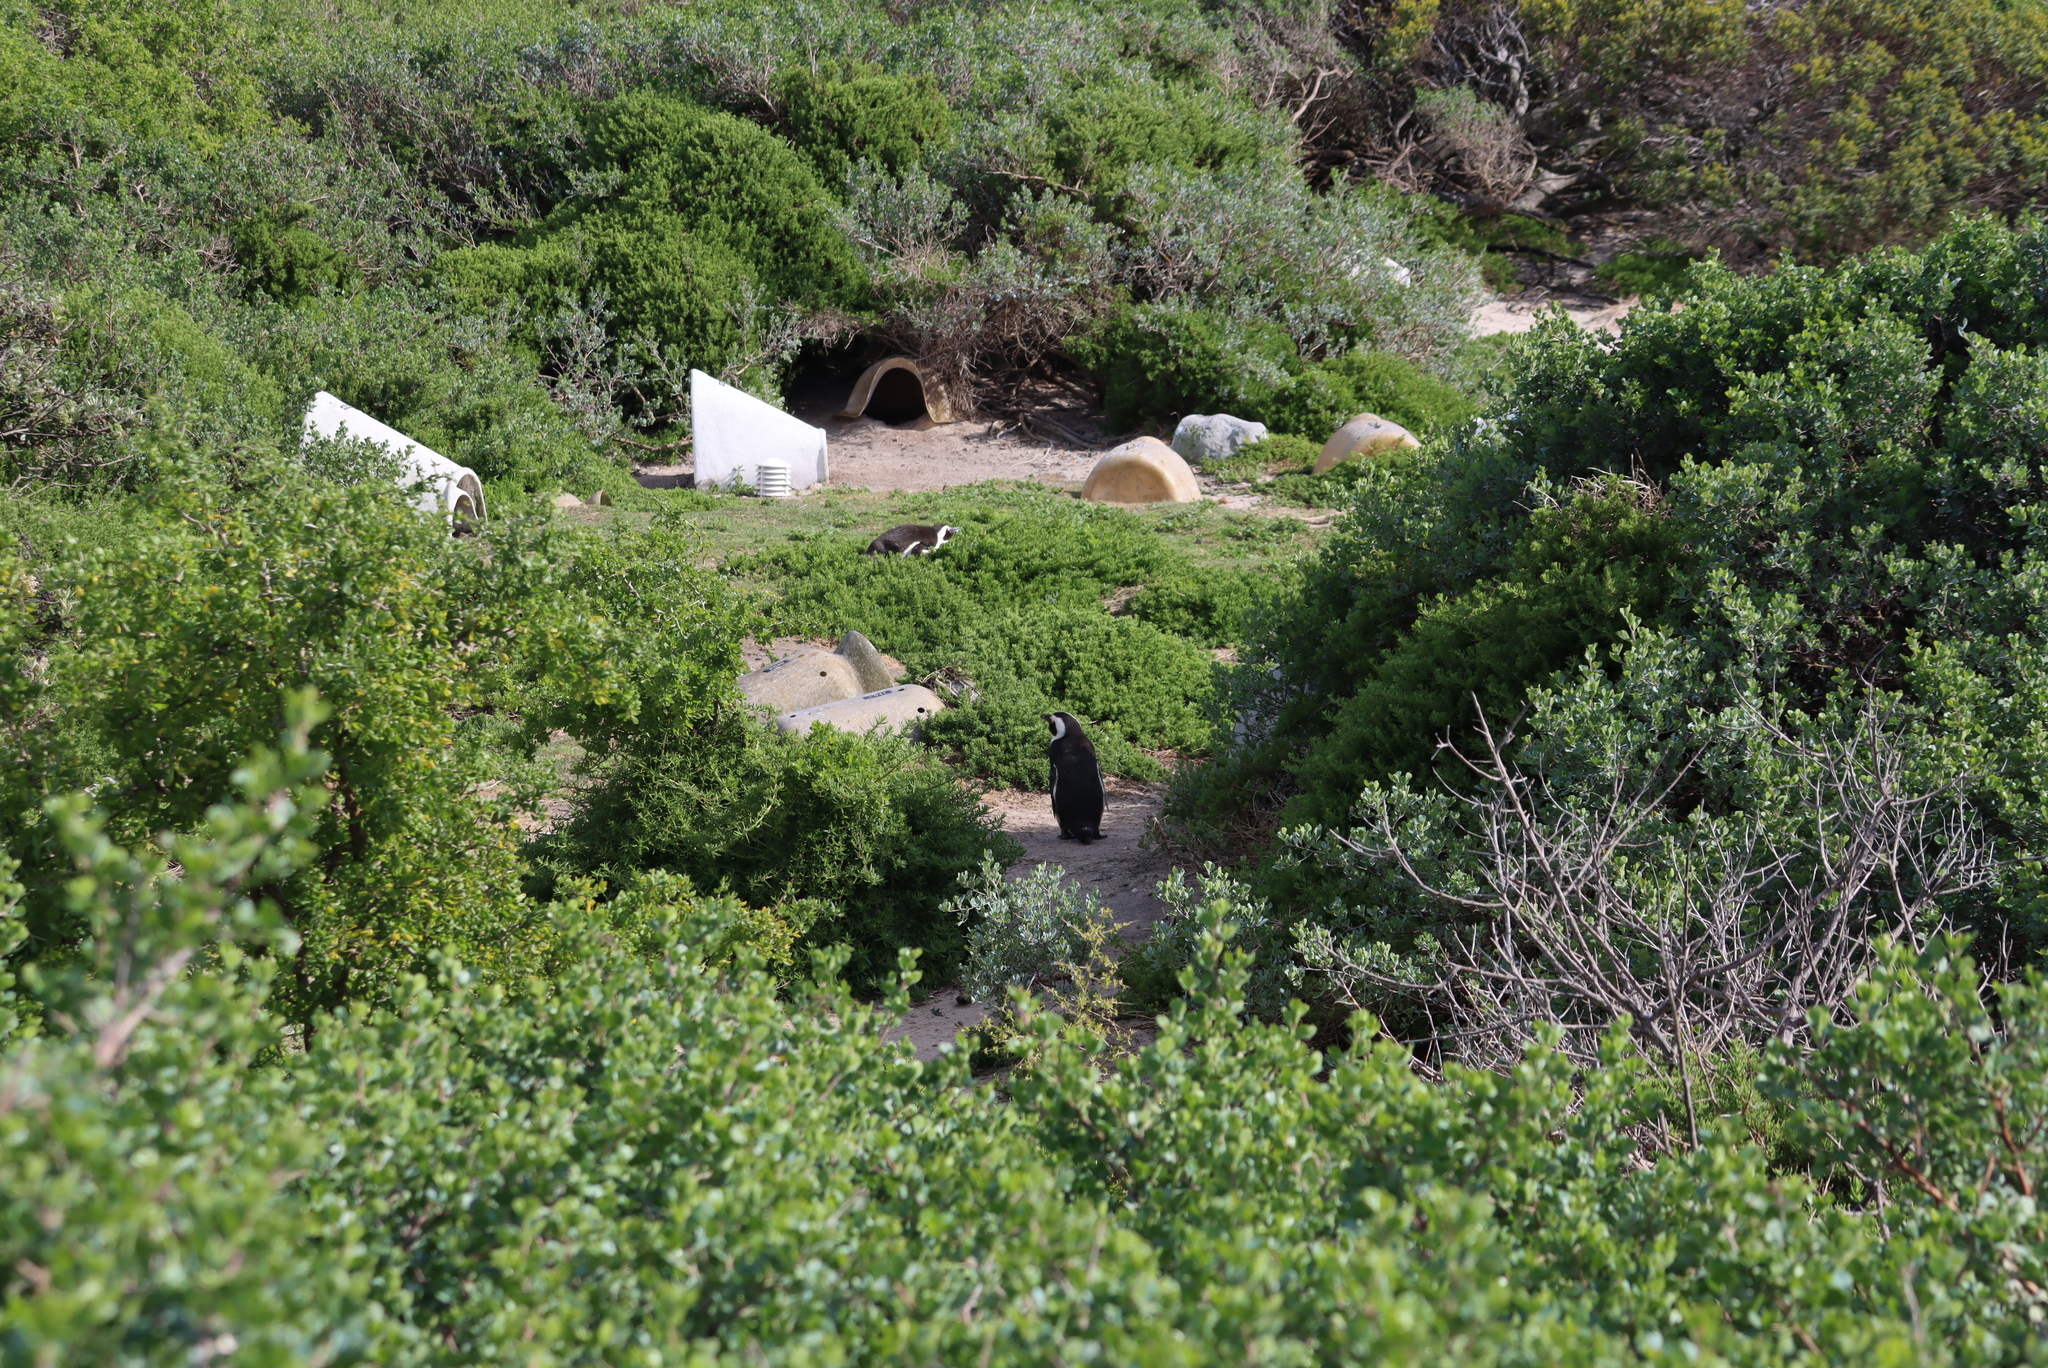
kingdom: Animalia
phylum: Chordata
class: Aves
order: Sphenisciformes
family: Spheniscidae
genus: Spheniscus
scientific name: Spheniscus demersus
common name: African penguin
